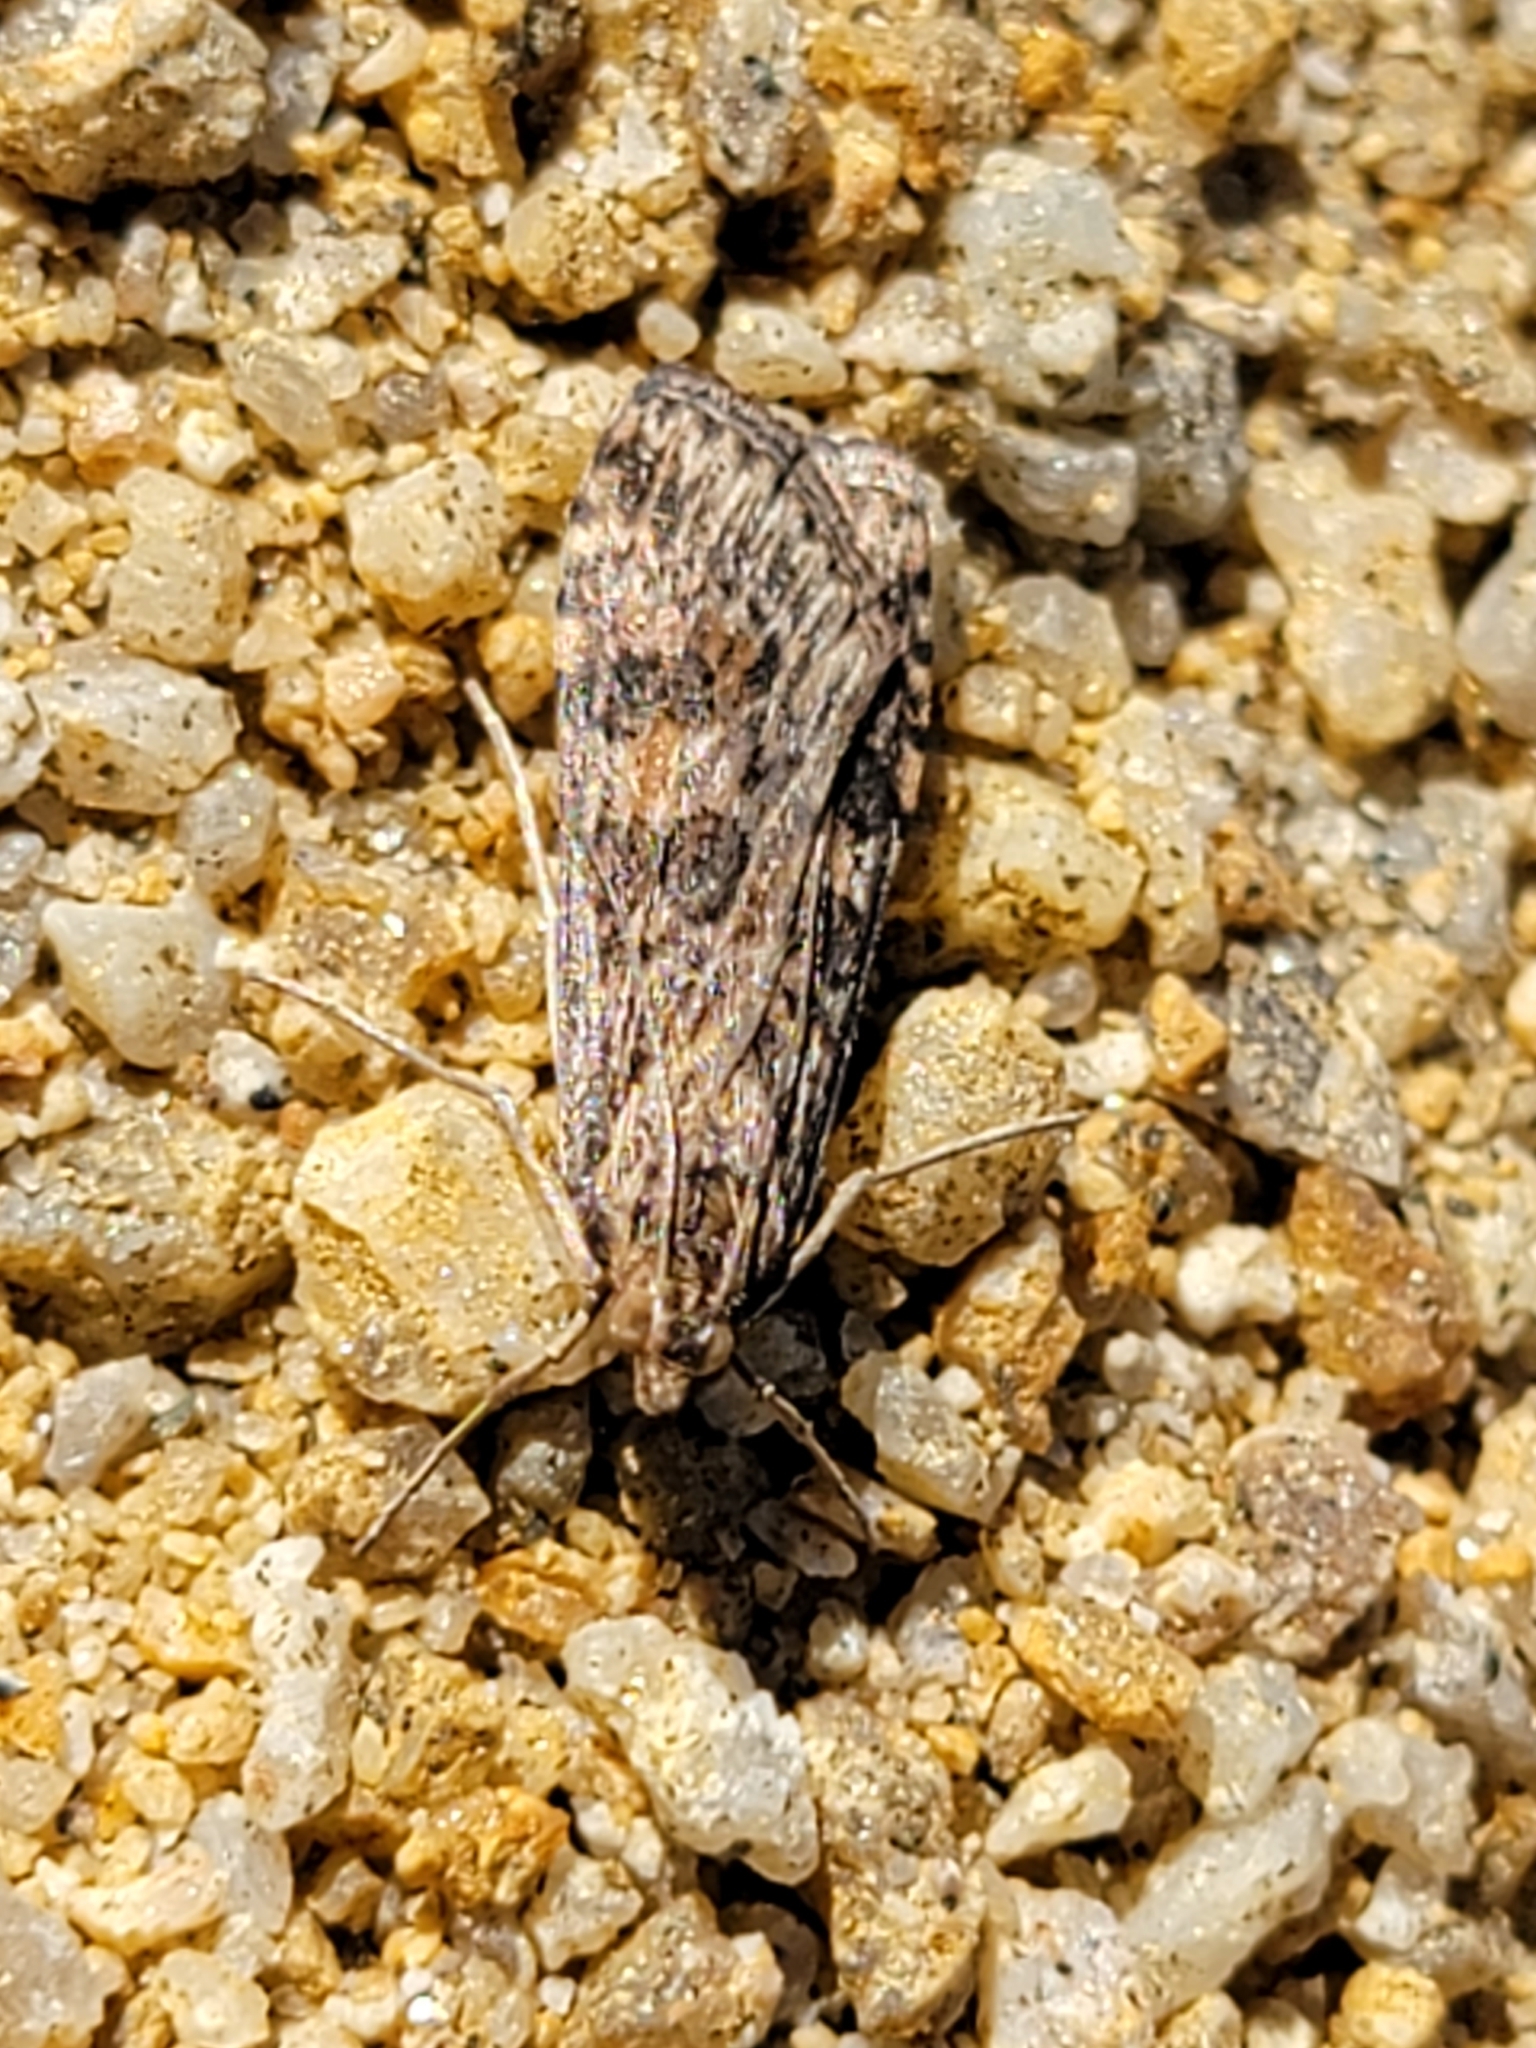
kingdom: Animalia
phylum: Arthropoda
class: Insecta
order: Lepidoptera
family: Crambidae
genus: Nomophila
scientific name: Nomophila nearctica
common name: American rush veneer
